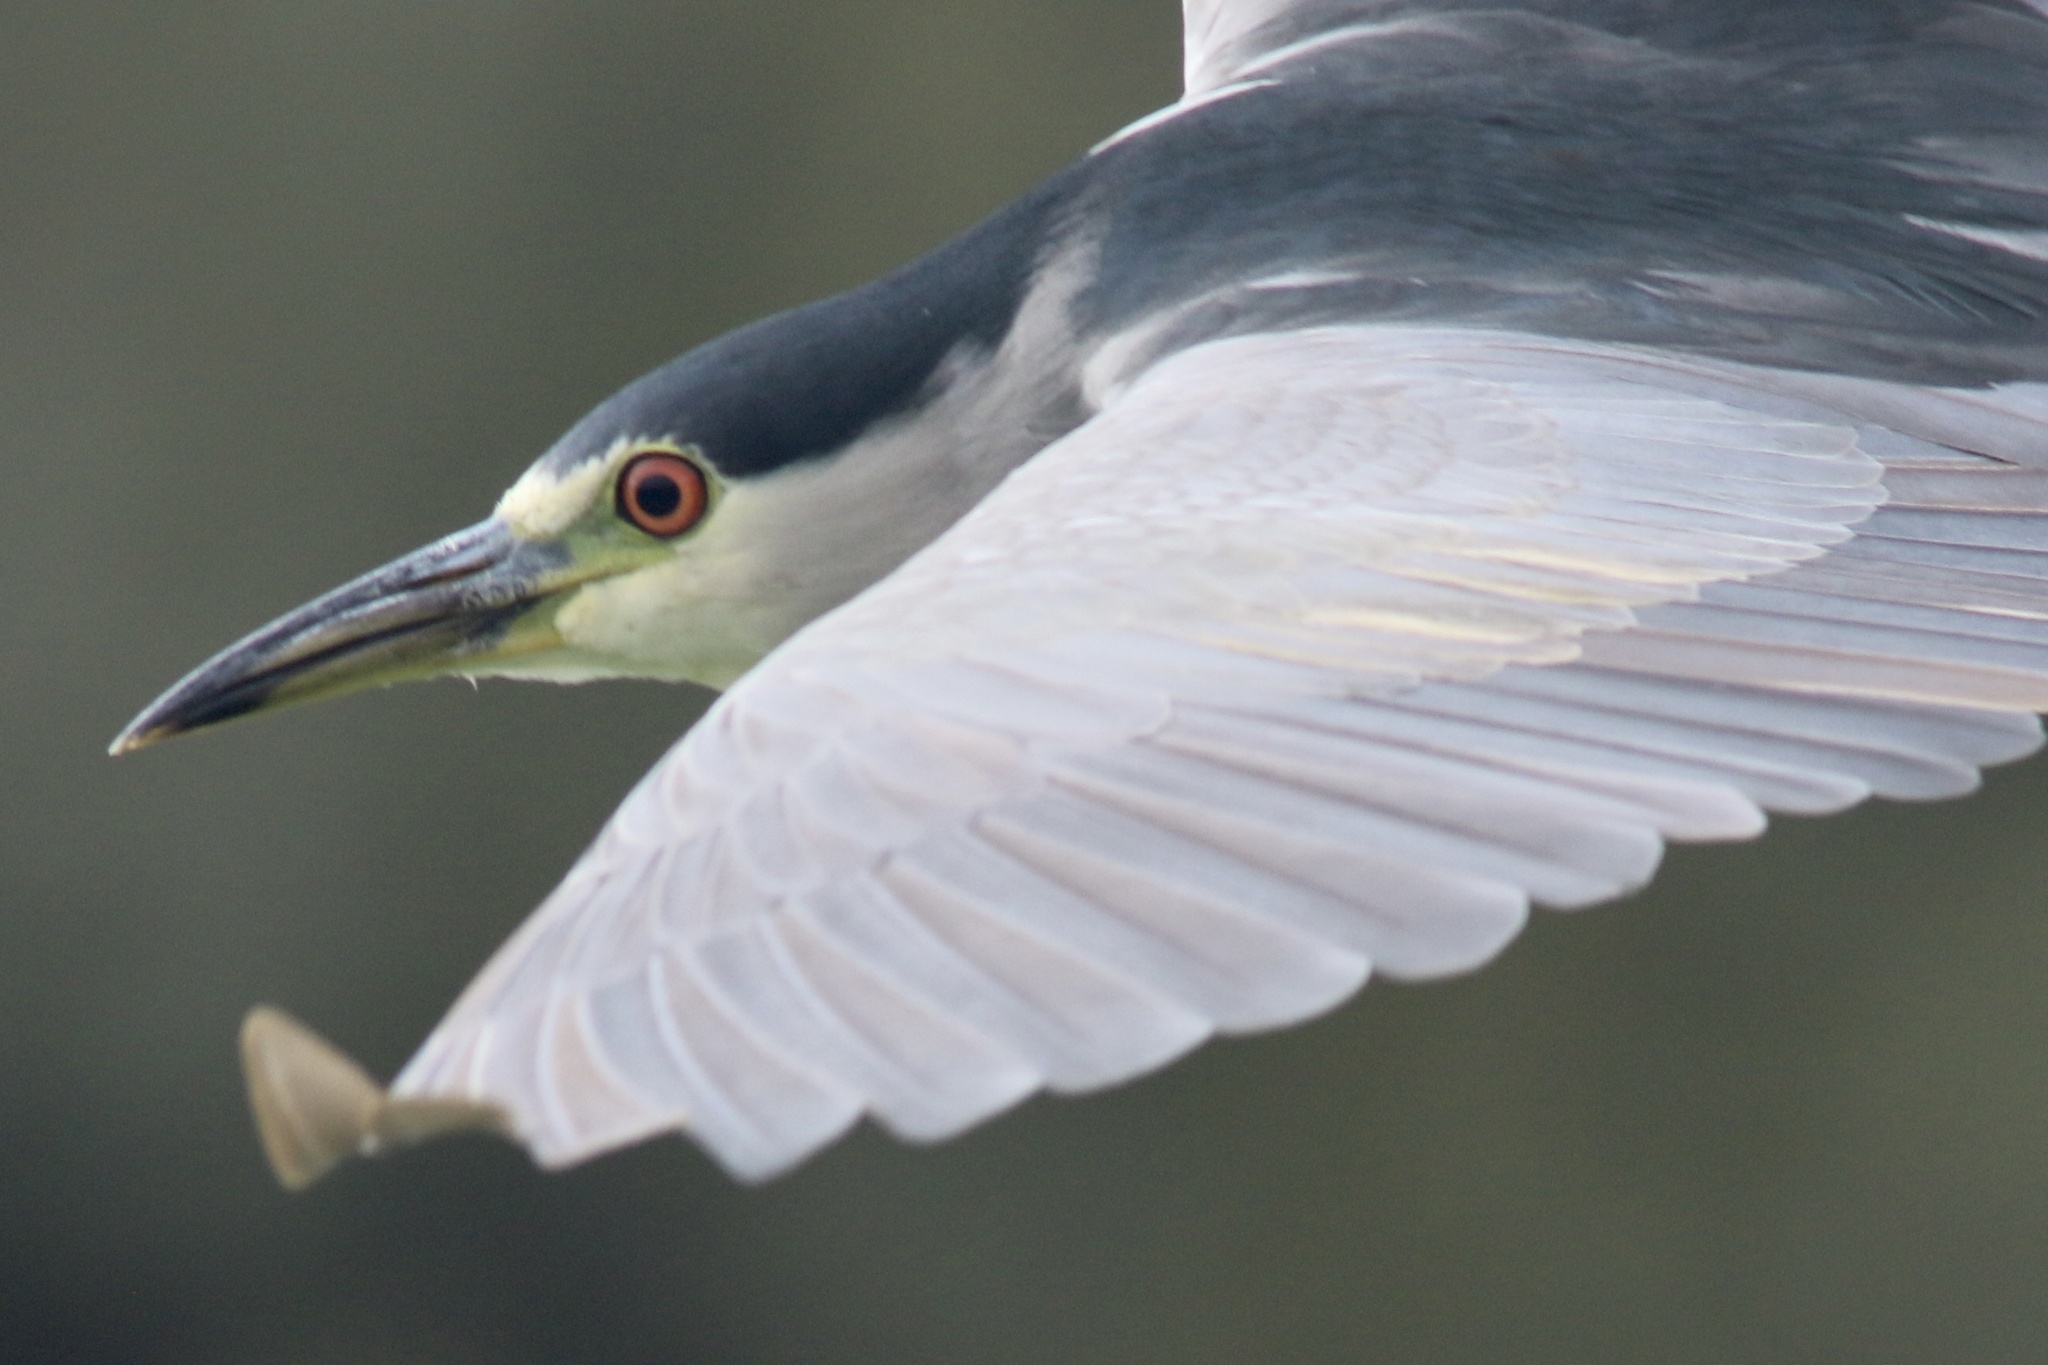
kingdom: Animalia
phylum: Chordata
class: Aves
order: Pelecaniformes
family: Ardeidae
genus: Nycticorax
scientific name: Nycticorax nycticorax
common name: Black-crowned night heron
